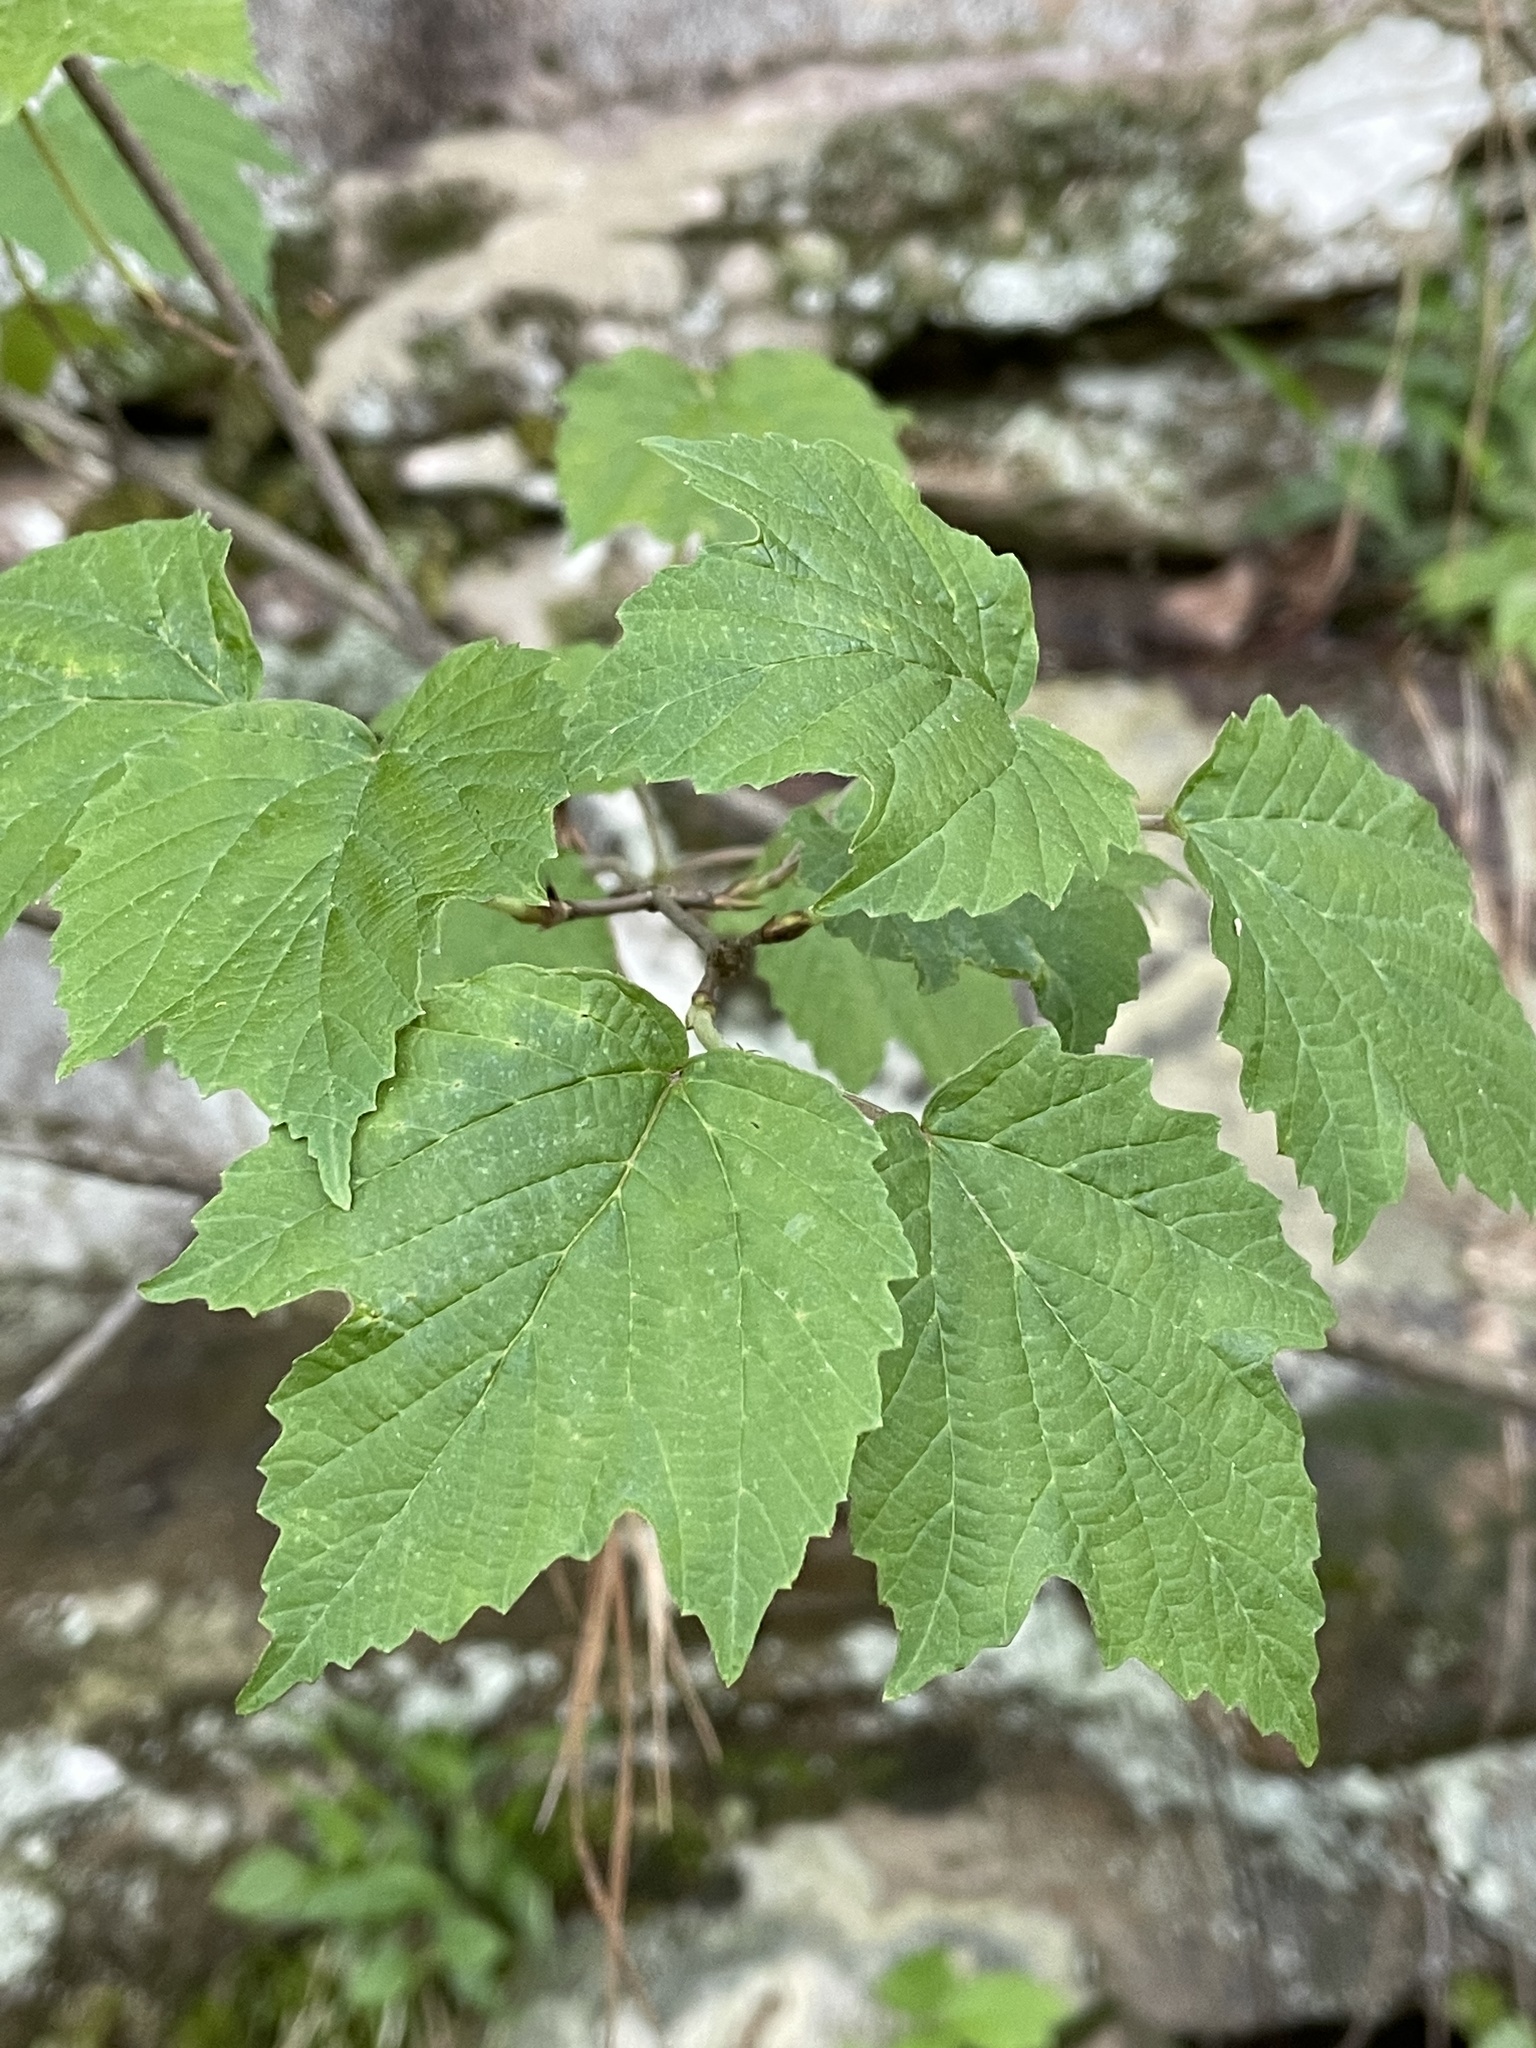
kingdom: Plantae
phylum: Tracheophyta
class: Magnoliopsida
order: Dipsacales
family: Viburnaceae
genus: Viburnum
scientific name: Viburnum acerifolium
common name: Dockmackie
